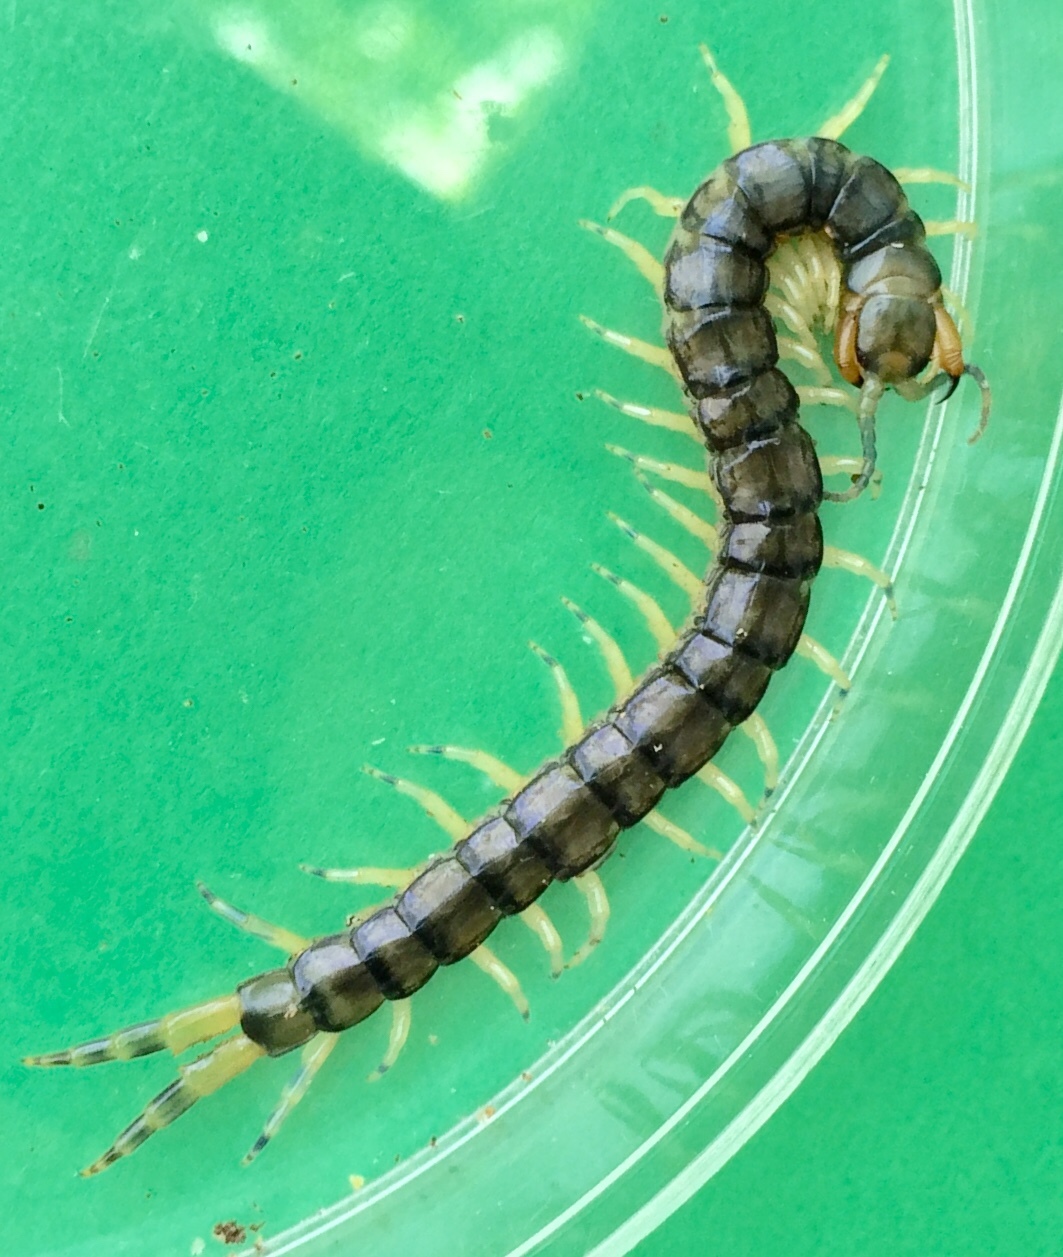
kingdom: Animalia
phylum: Arthropoda
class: Chilopoda
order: Scolopendromorpha
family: Scolopendridae
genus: Hemiscolopendra
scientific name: Hemiscolopendra marginata
